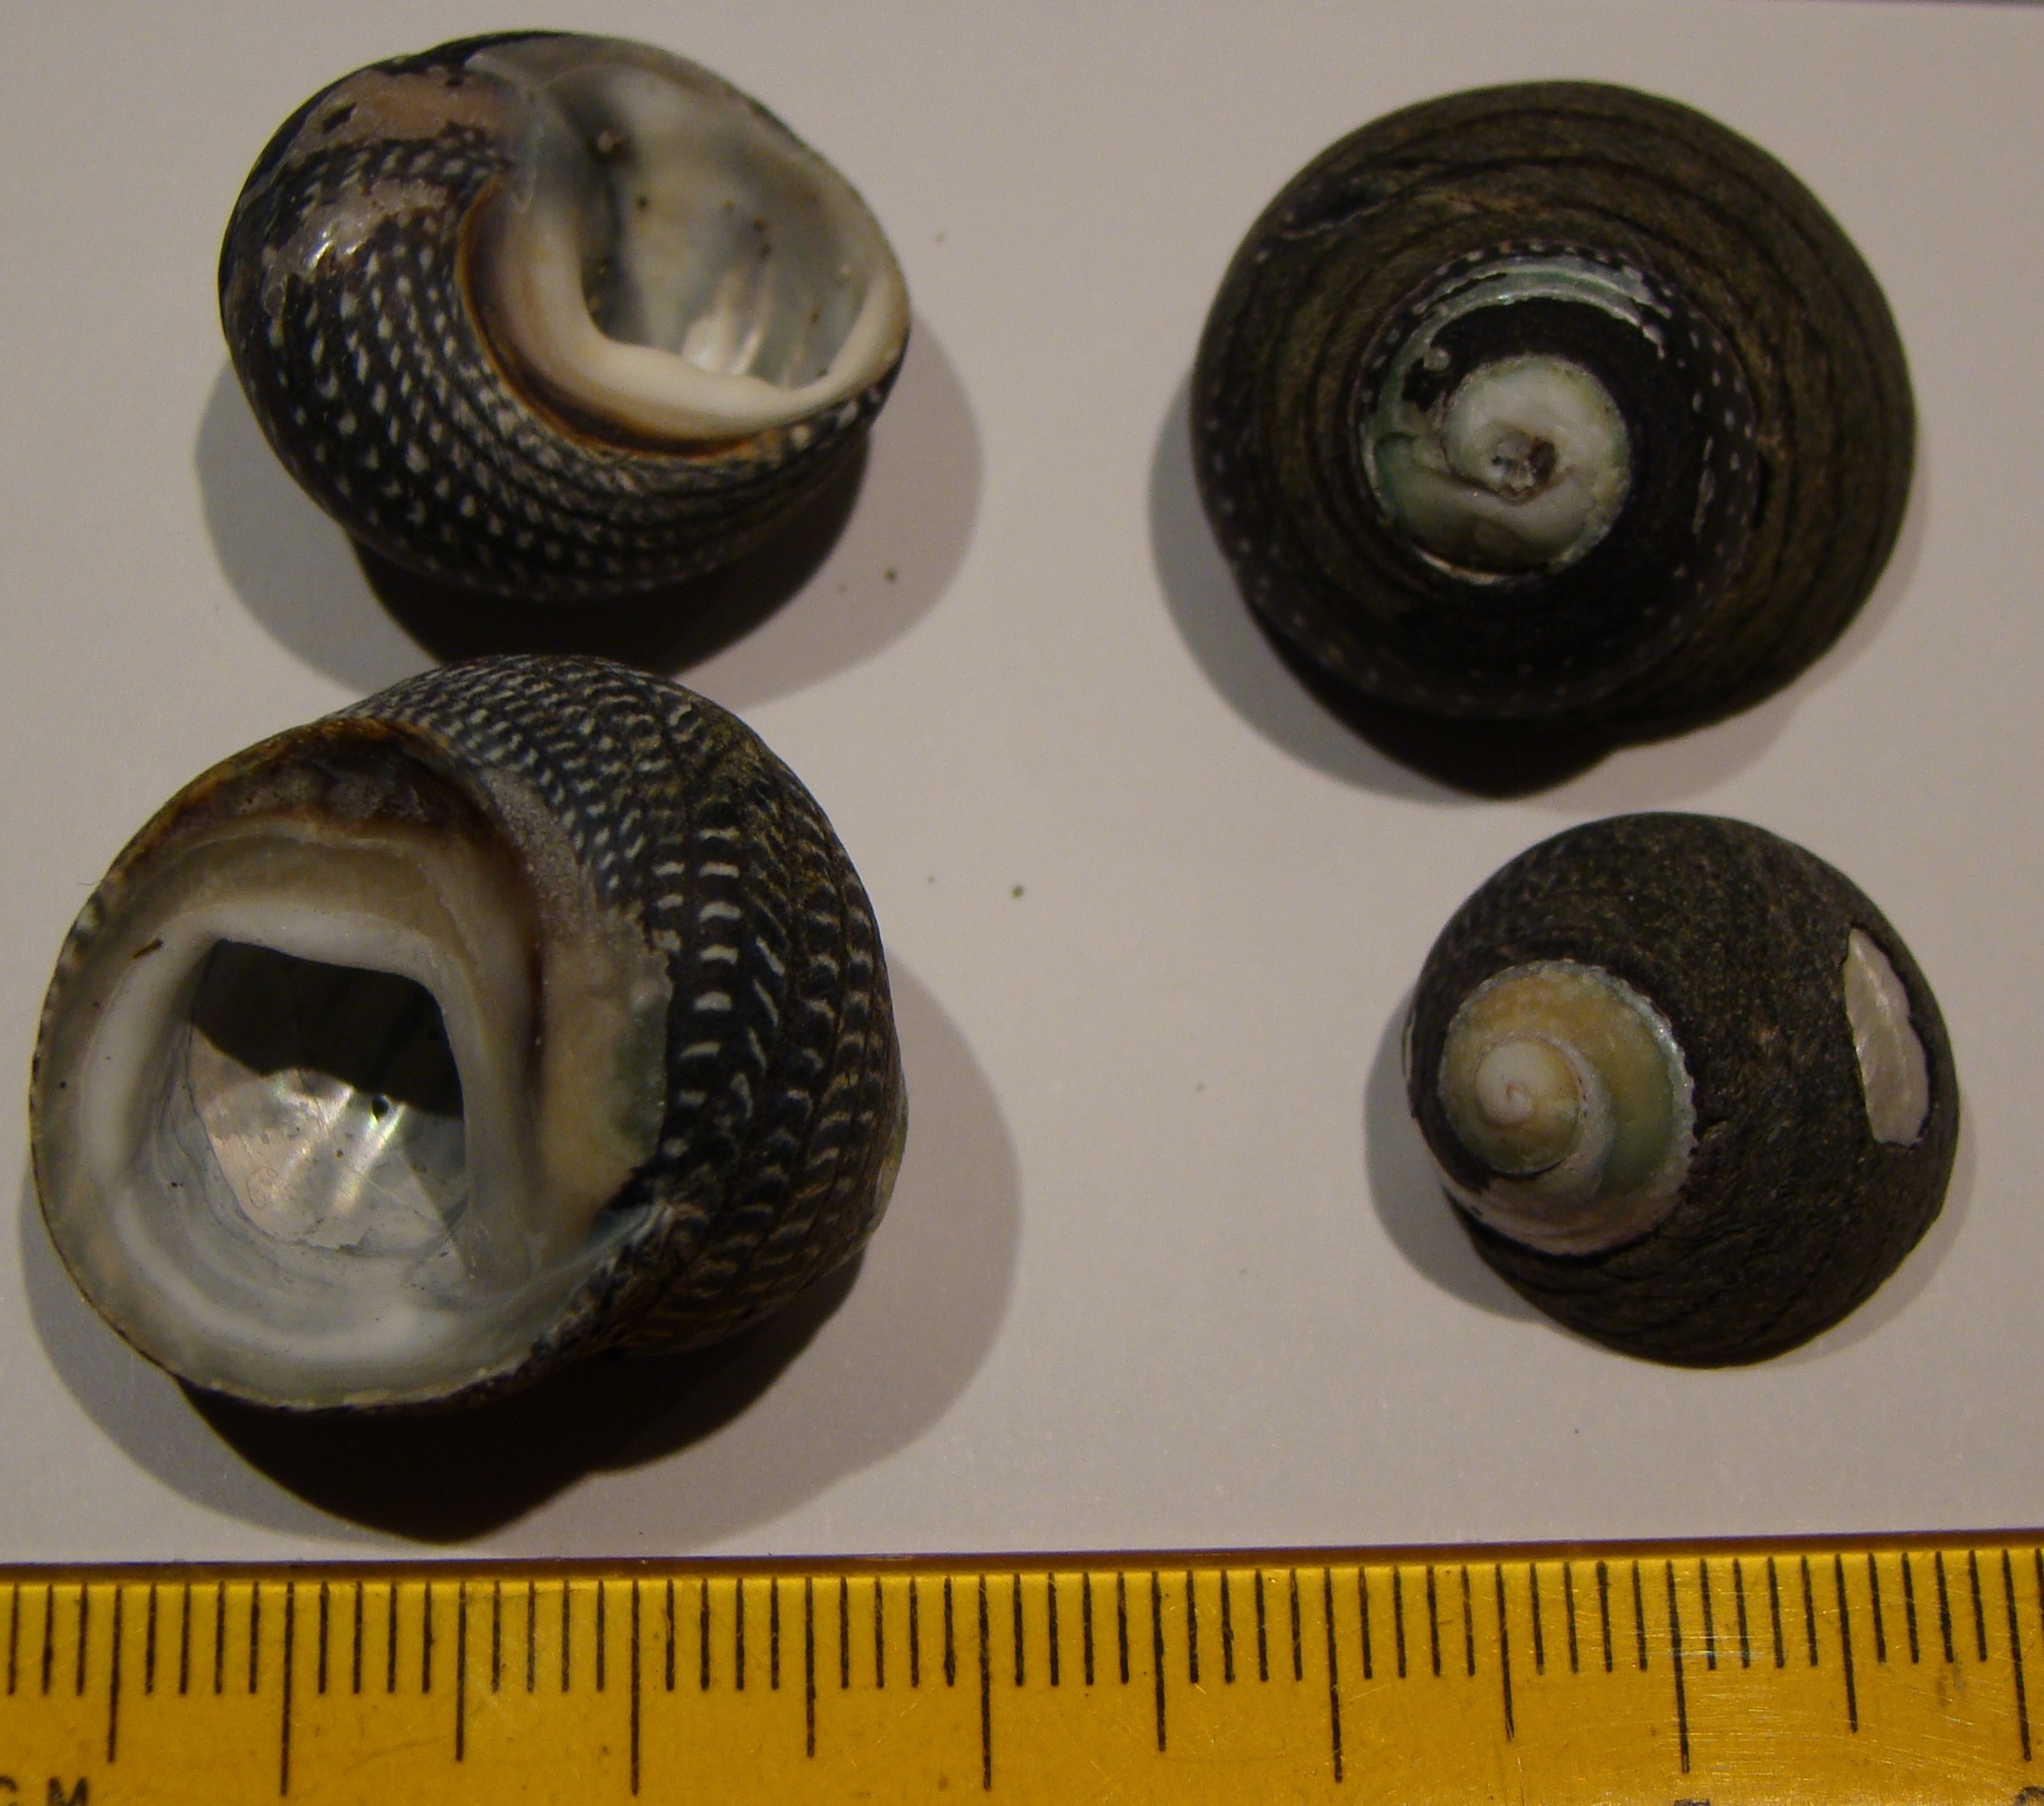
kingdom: Animalia
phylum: Mollusca
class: Gastropoda
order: Trochida
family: Trochidae
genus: Diloma
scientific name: Diloma aethiops
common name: Scorched monodont
